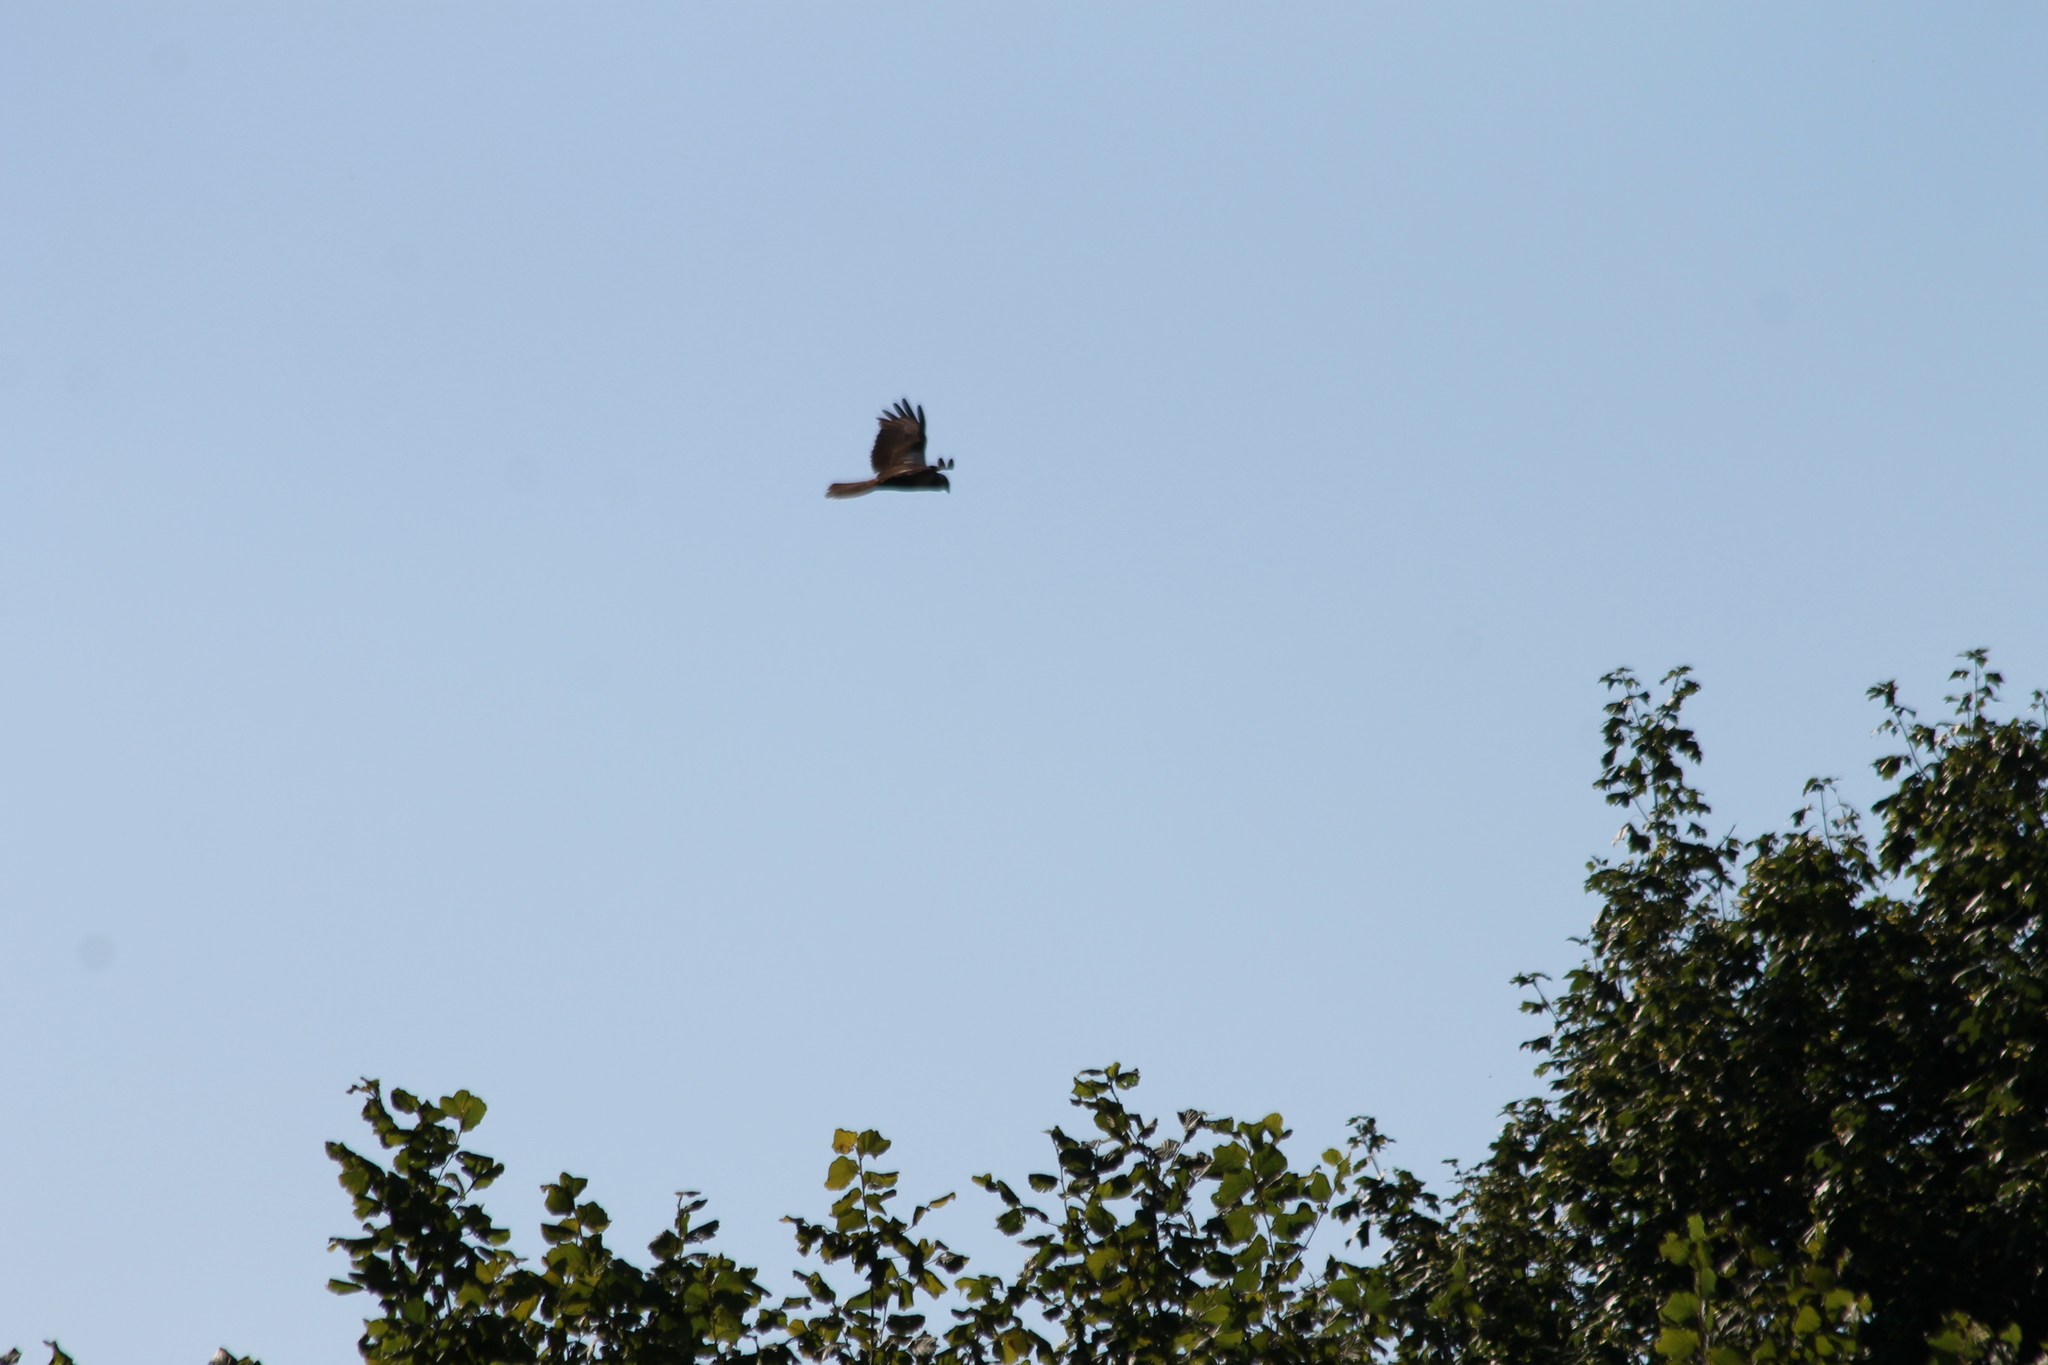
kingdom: Animalia
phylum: Chordata
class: Aves
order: Accipitriformes
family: Accipitridae
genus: Circus
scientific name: Circus aeruginosus
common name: Western marsh harrier
